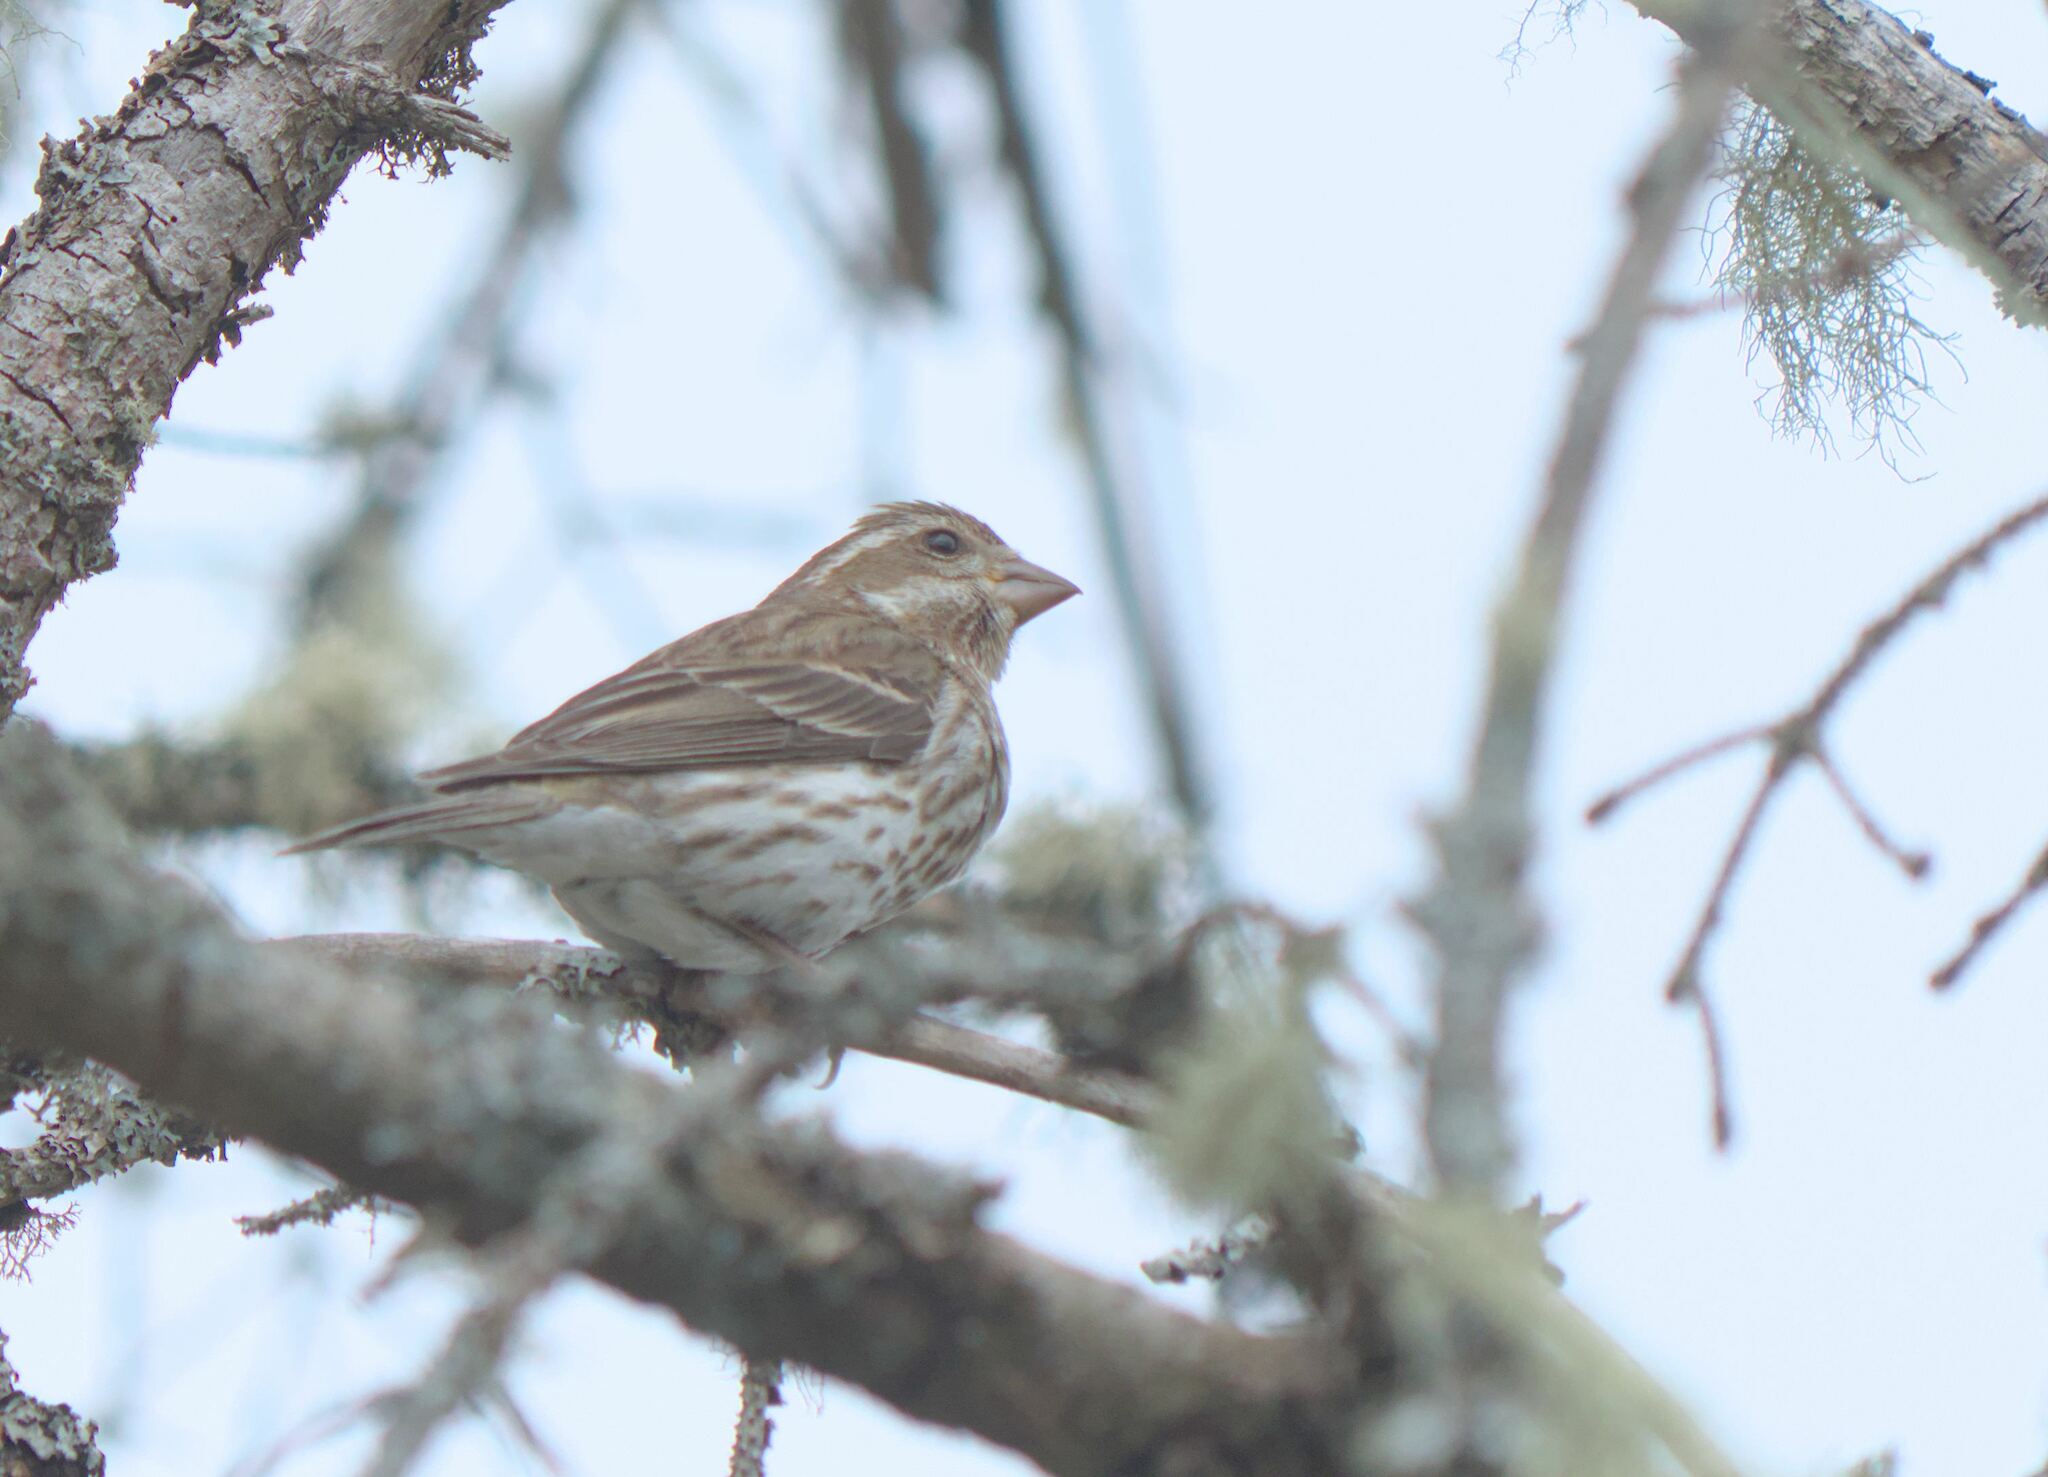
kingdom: Animalia
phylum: Chordata
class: Aves
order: Passeriformes
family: Fringillidae
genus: Haemorhous
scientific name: Haemorhous purpureus
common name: Purple finch
